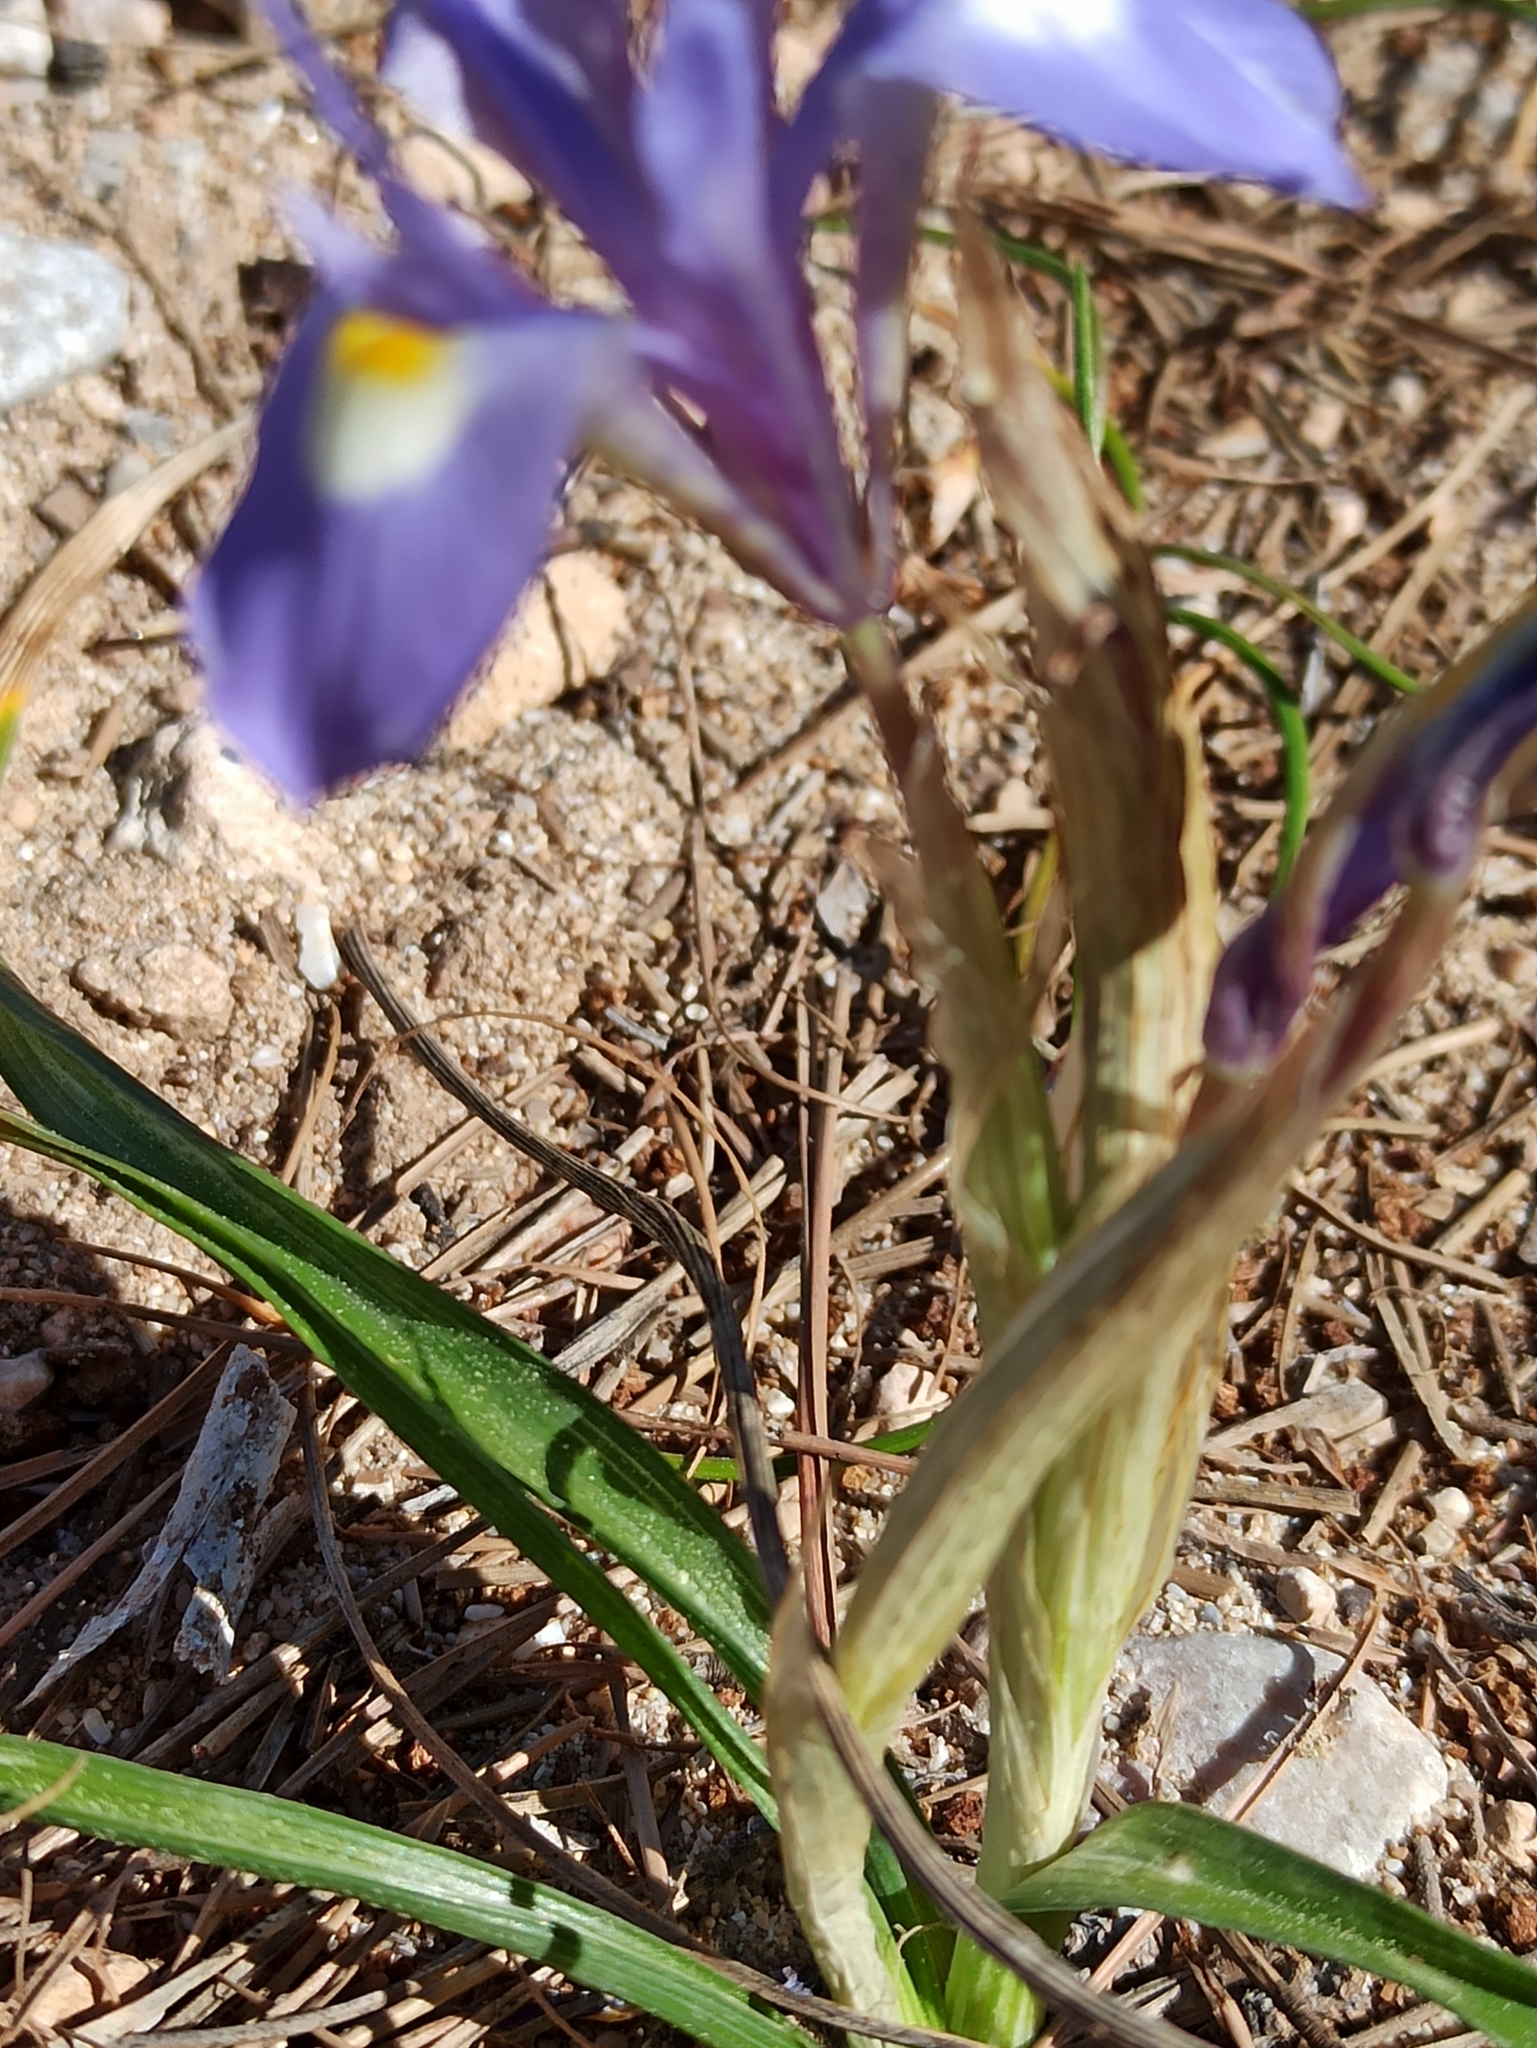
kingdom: Plantae
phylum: Tracheophyta
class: Liliopsida
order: Asparagales
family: Iridaceae
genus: Moraea
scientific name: Moraea sisyrinchium
